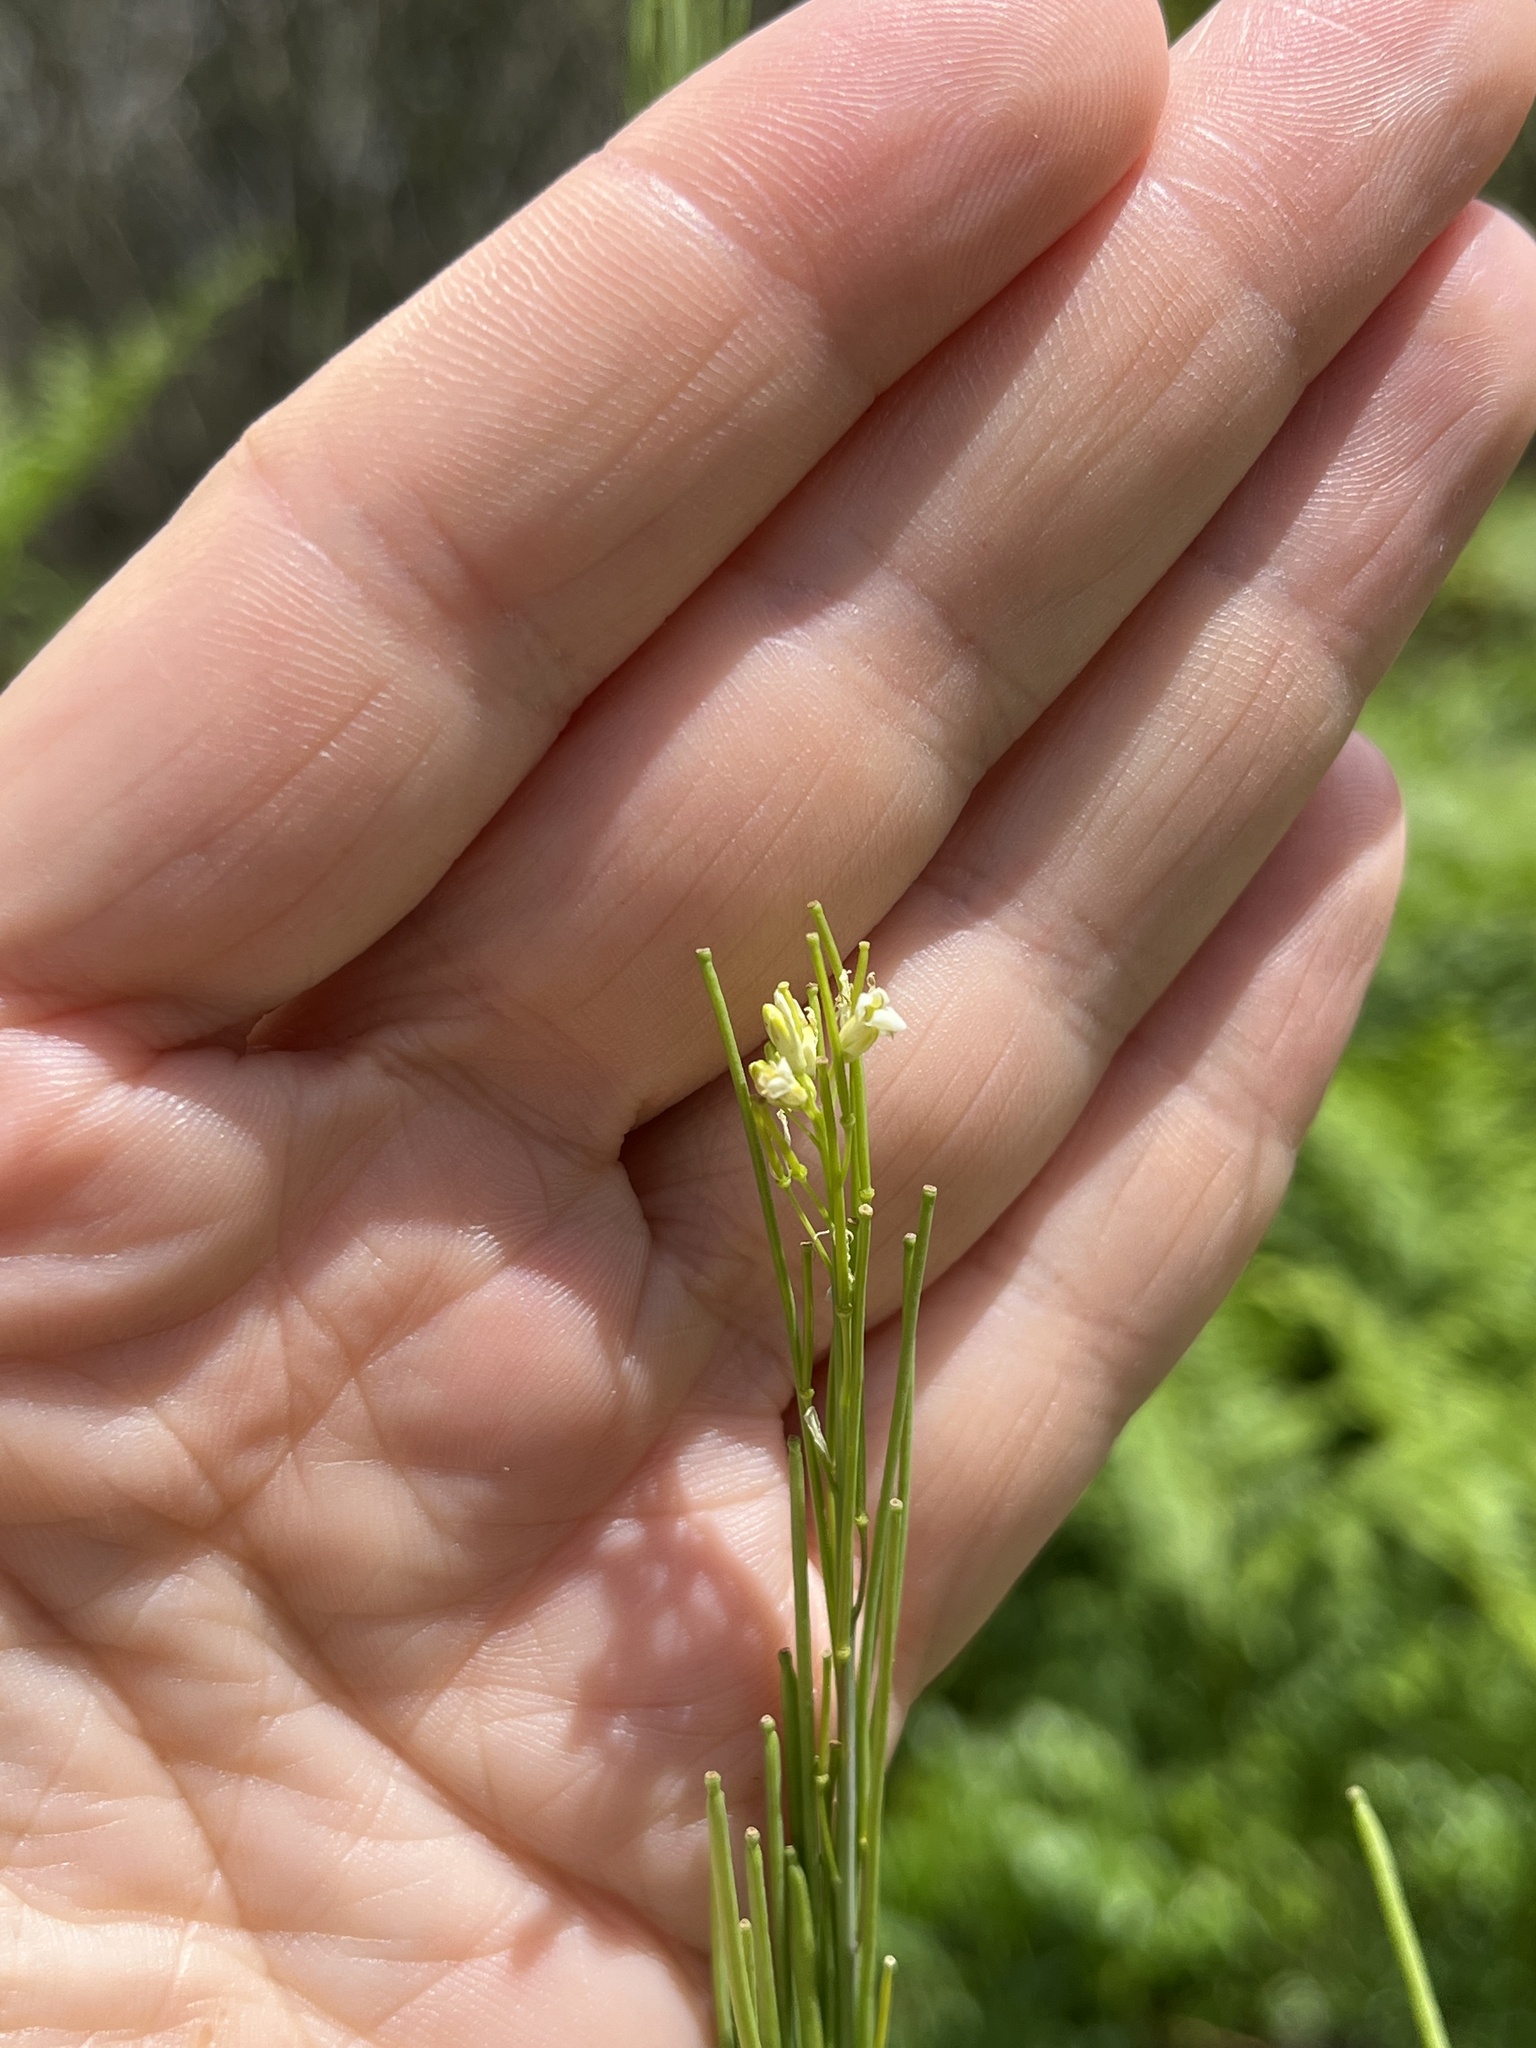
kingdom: Plantae
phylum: Tracheophyta
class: Magnoliopsida
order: Brassicales
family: Brassicaceae
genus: Turritis
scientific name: Turritis glabra
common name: Tower rockcress
